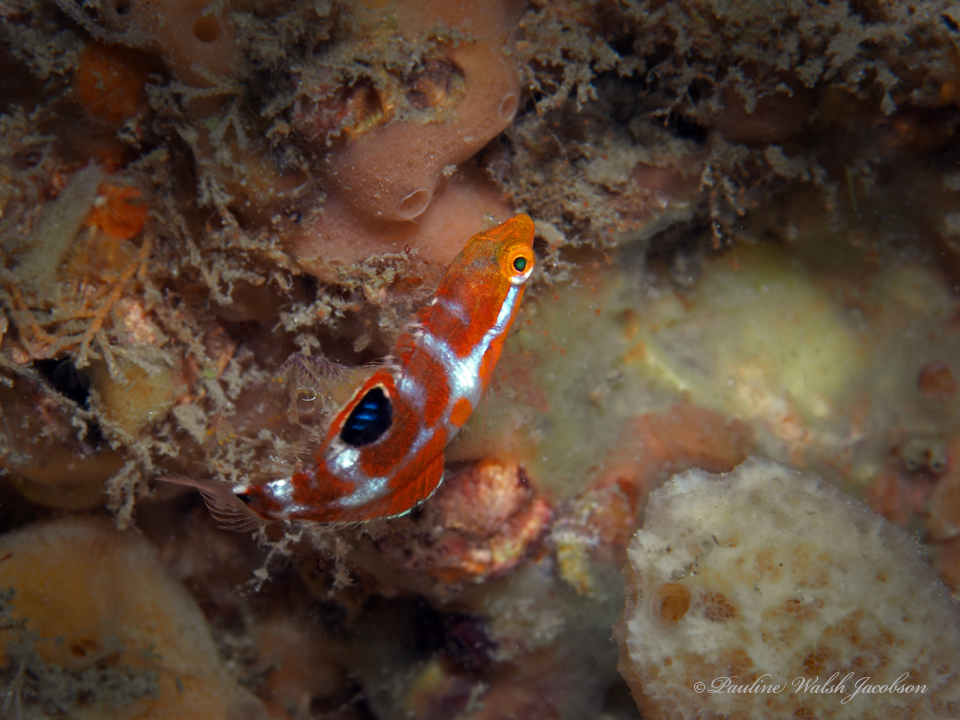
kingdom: Animalia
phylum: Chordata
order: Perciformes
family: Labridae
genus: Halichoeres
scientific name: Halichoeres radiatus
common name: Puddingwife
